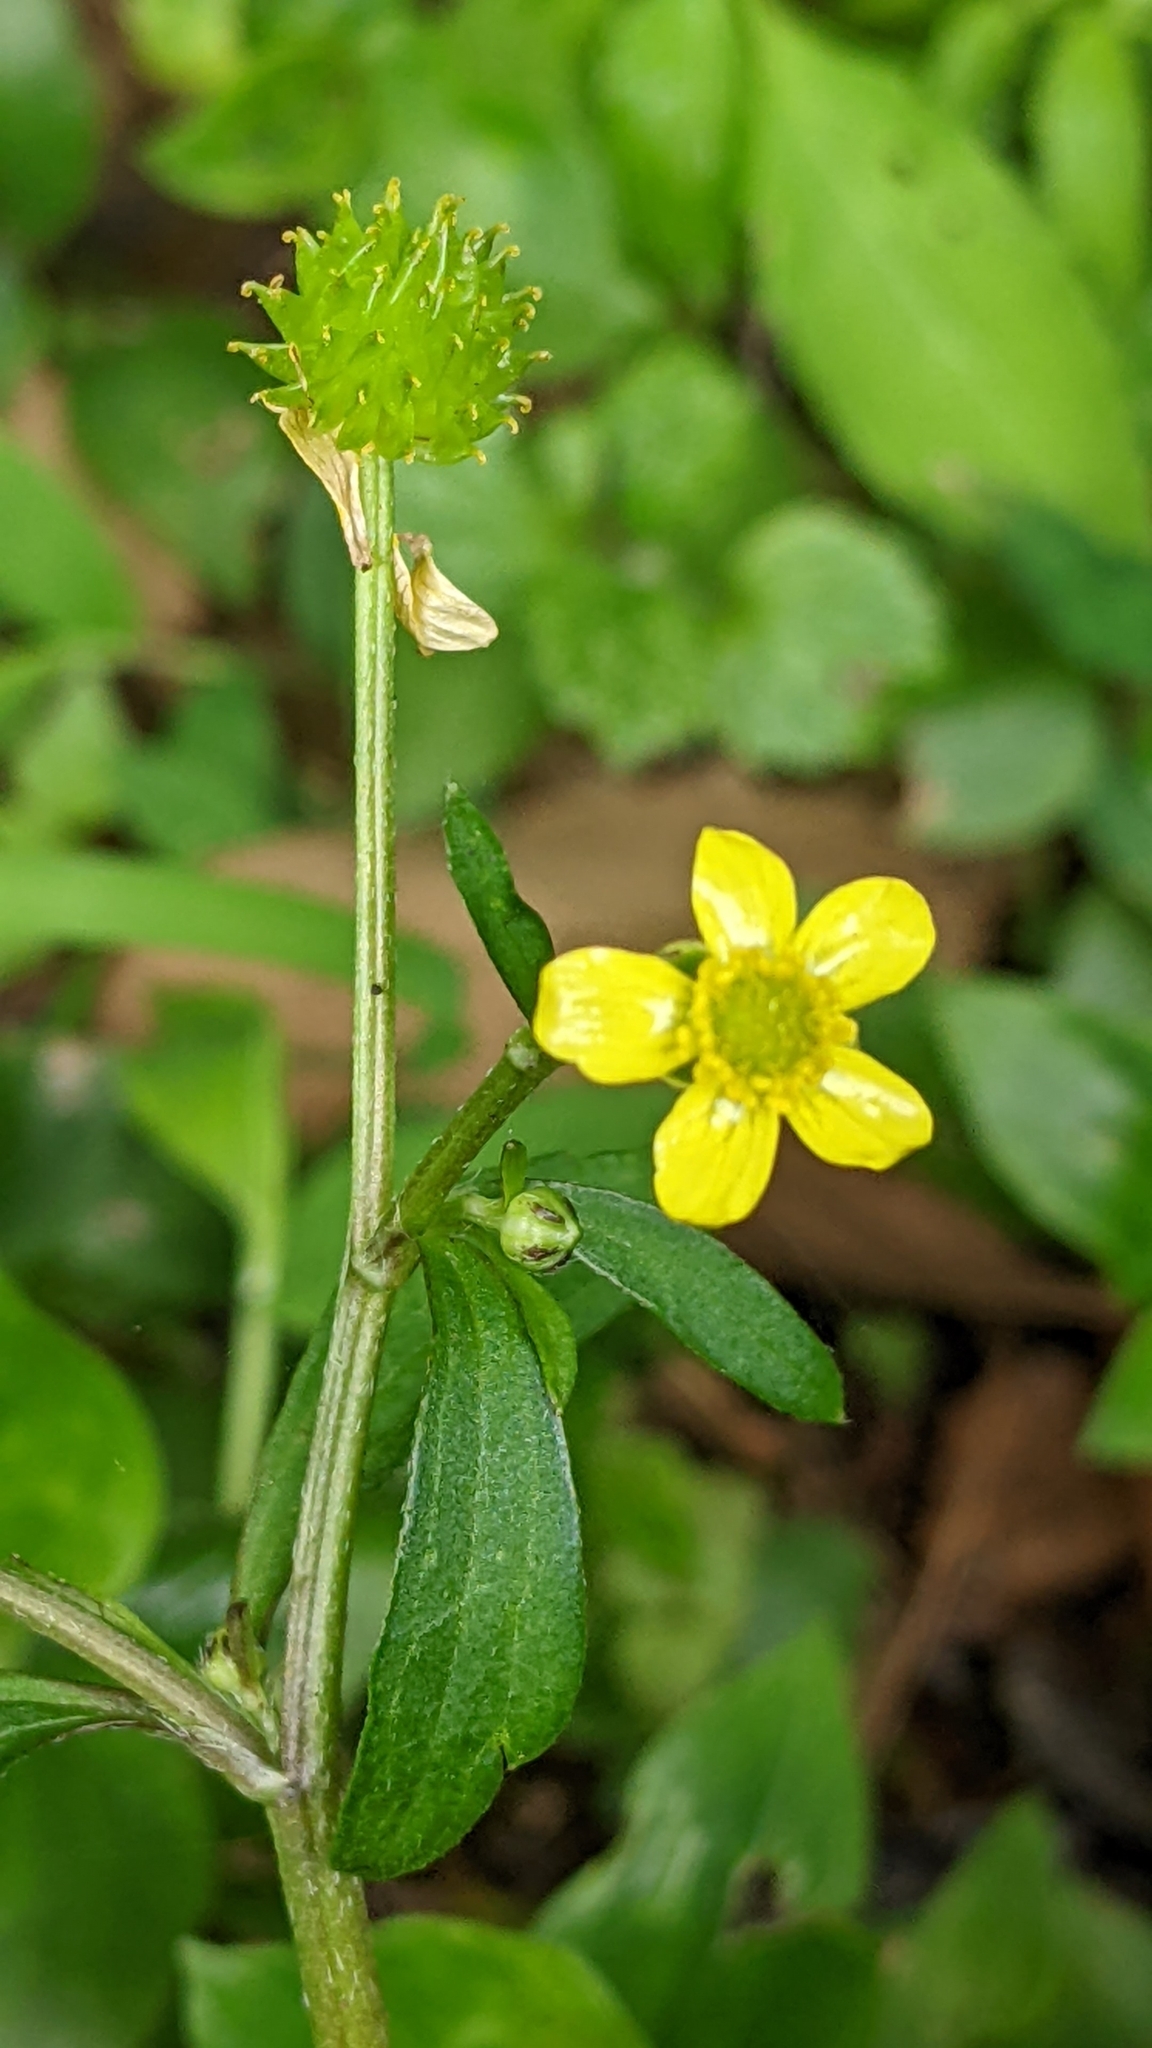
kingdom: Plantae
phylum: Tracheophyta
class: Magnoliopsida
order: Ranunculales
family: Ranunculaceae
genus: Ranunculus
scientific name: Ranunculus silerifolius
